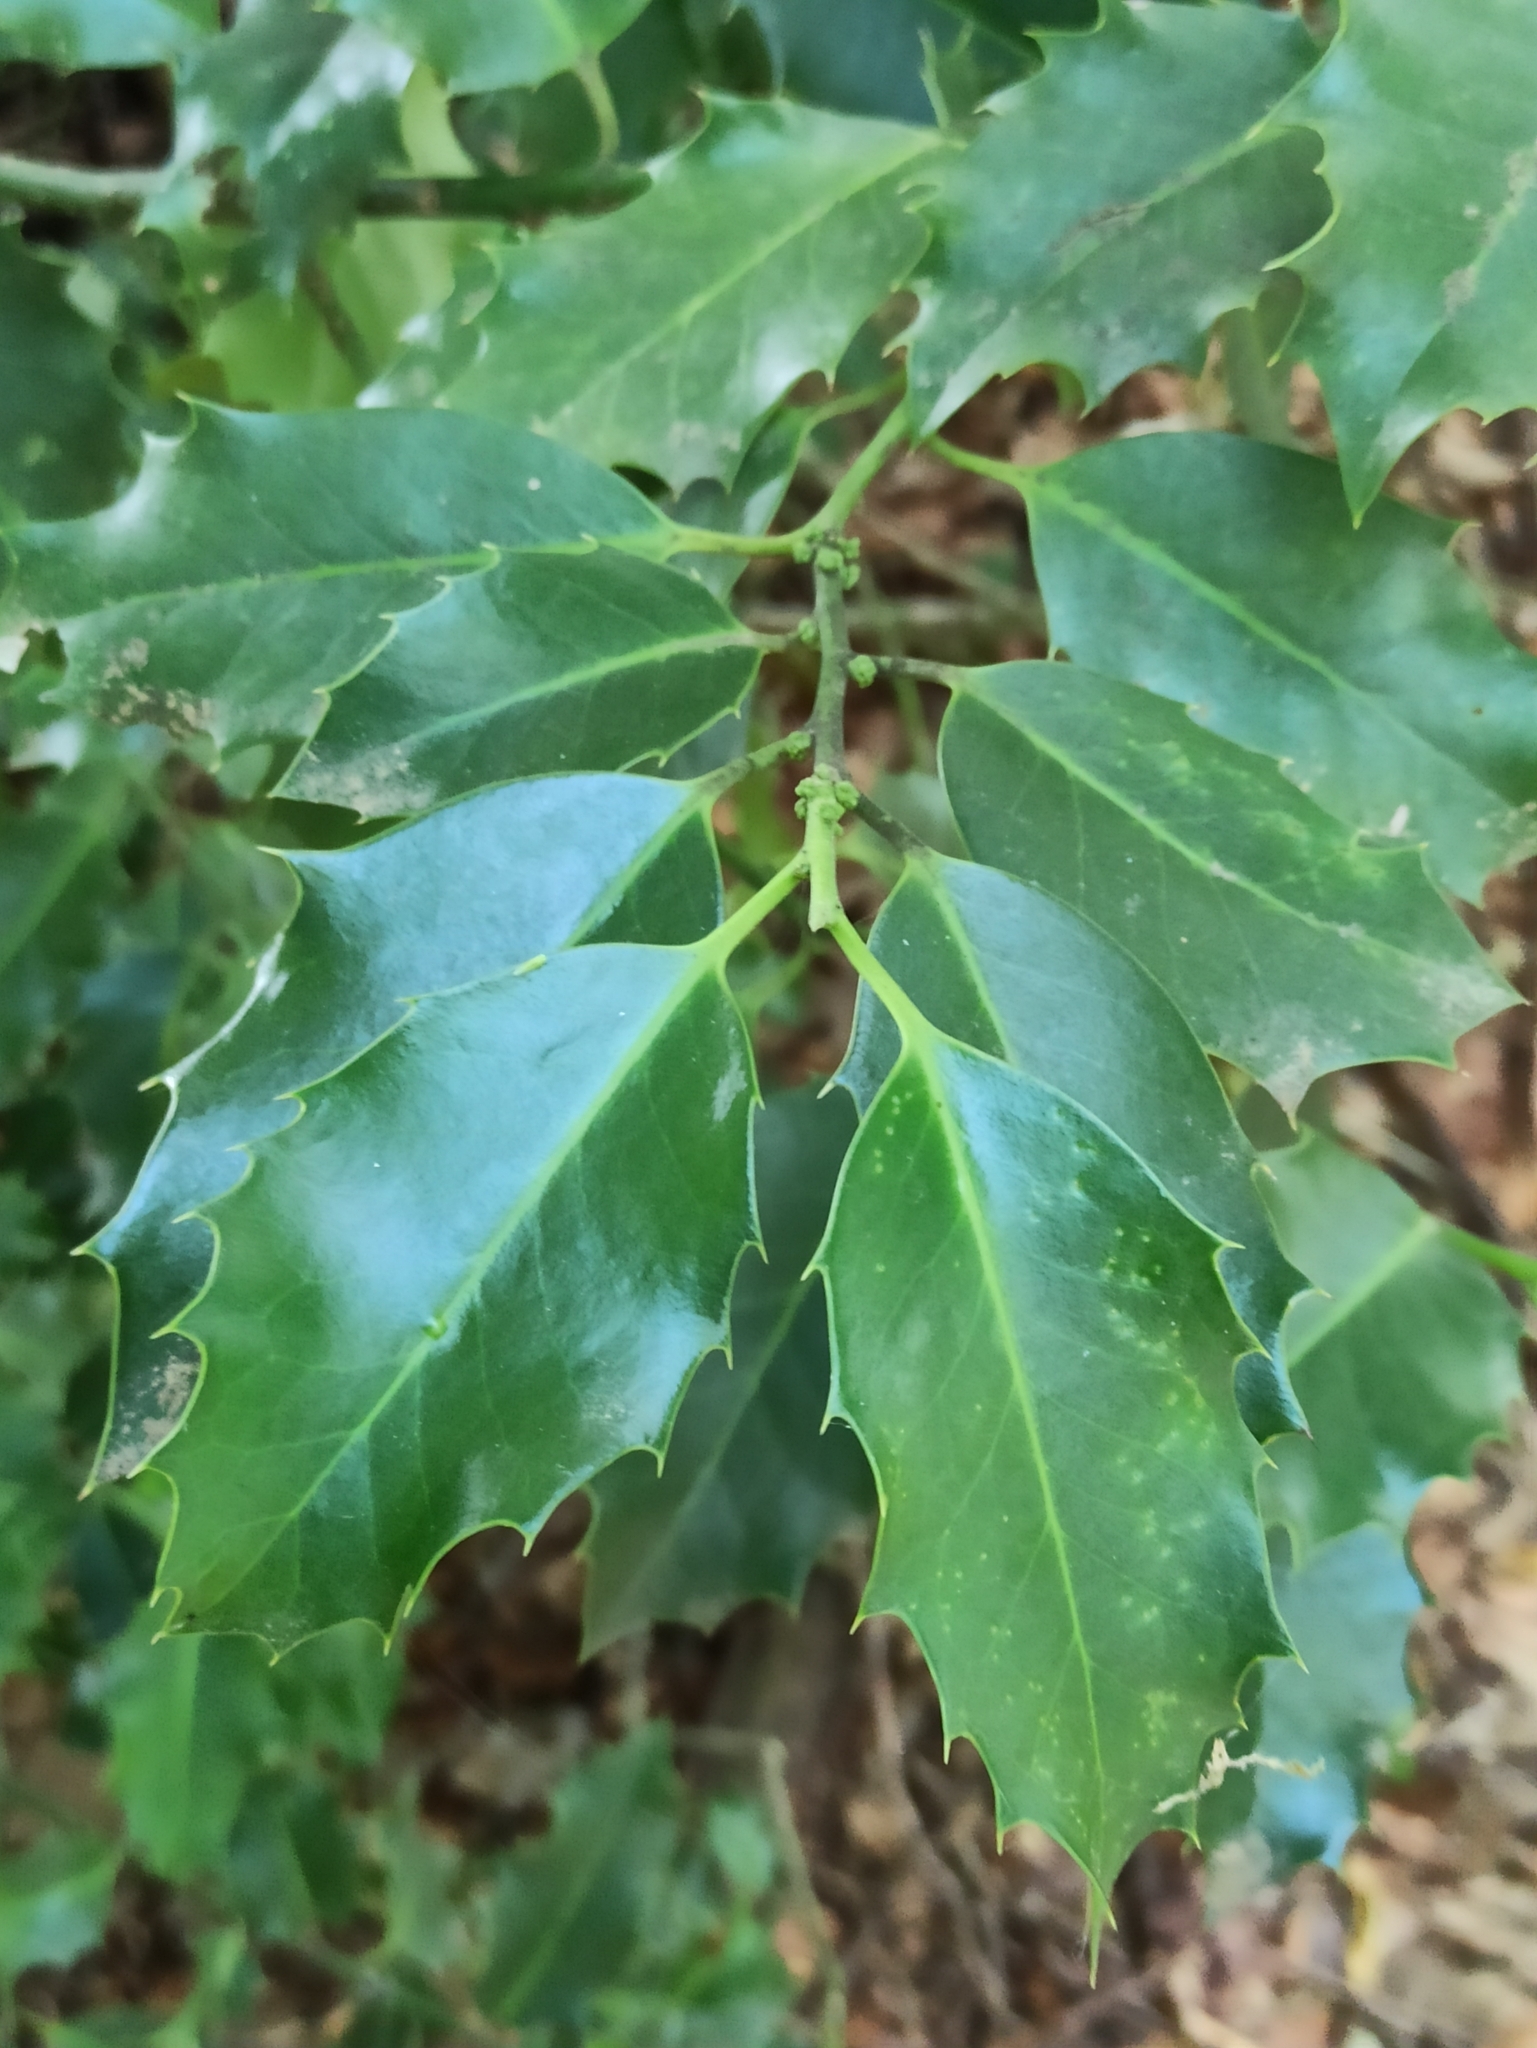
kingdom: Plantae
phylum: Tracheophyta
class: Magnoliopsida
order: Aquifoliales
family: Aquifoliaceae
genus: Ilex
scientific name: Ilex aquifolium
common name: English holly
